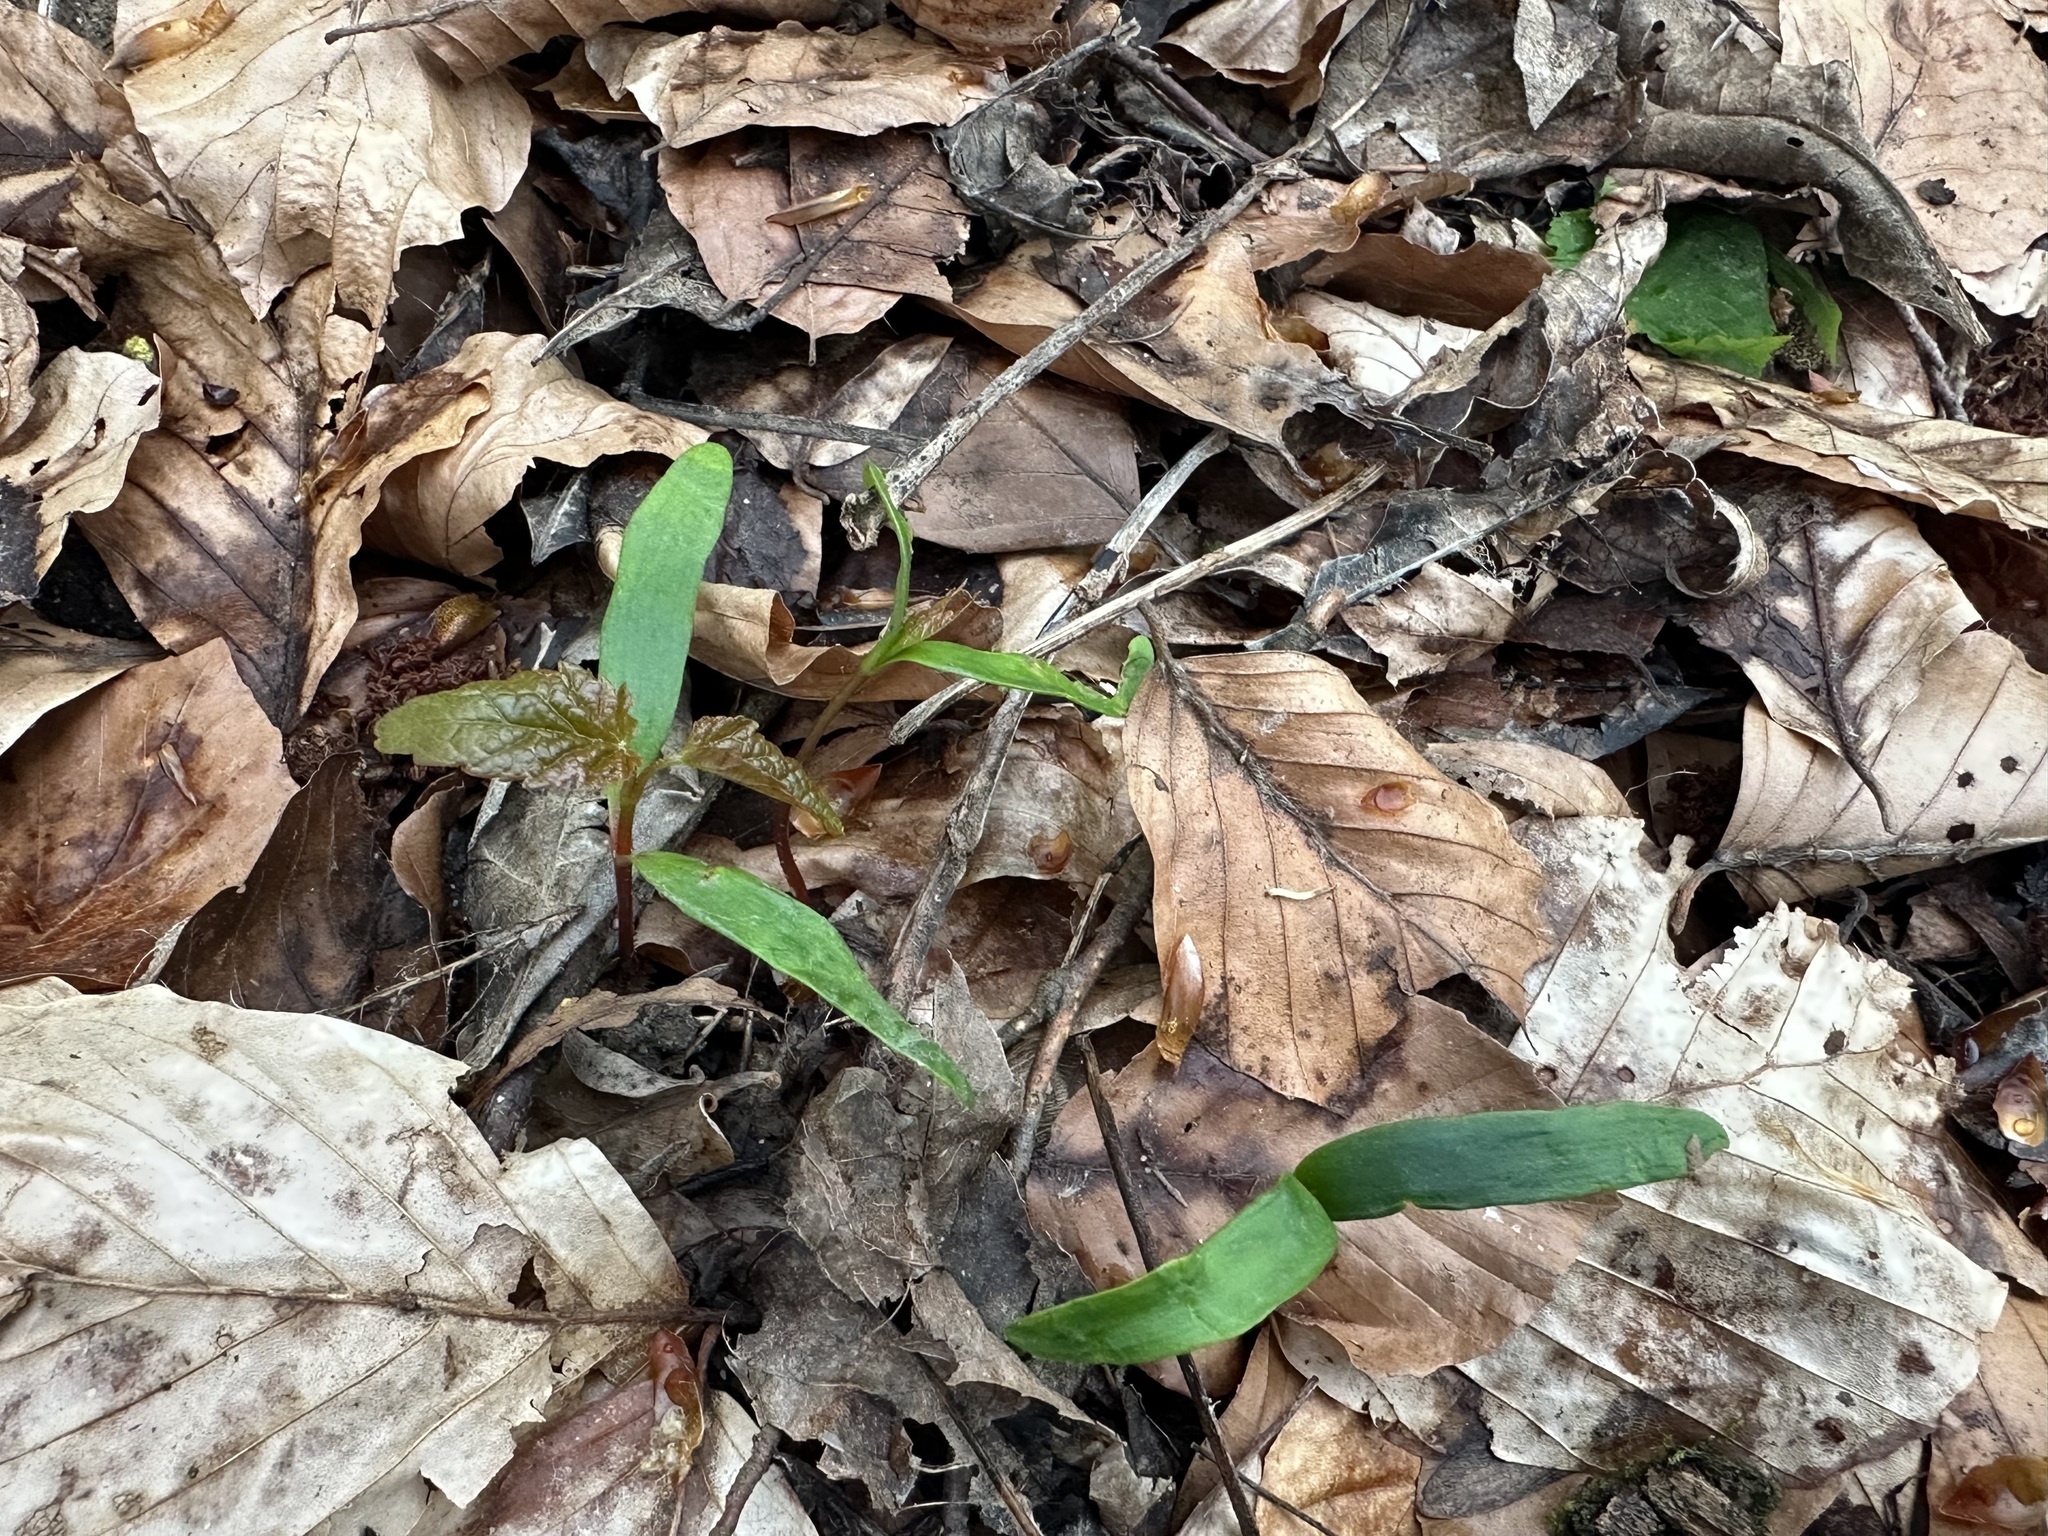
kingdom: Plantae
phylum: Tracheophyta
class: Magnoliopsida
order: Sapindales
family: Sapindaceae
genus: Acer
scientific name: Acer pseudoplatanus
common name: Sycamore
